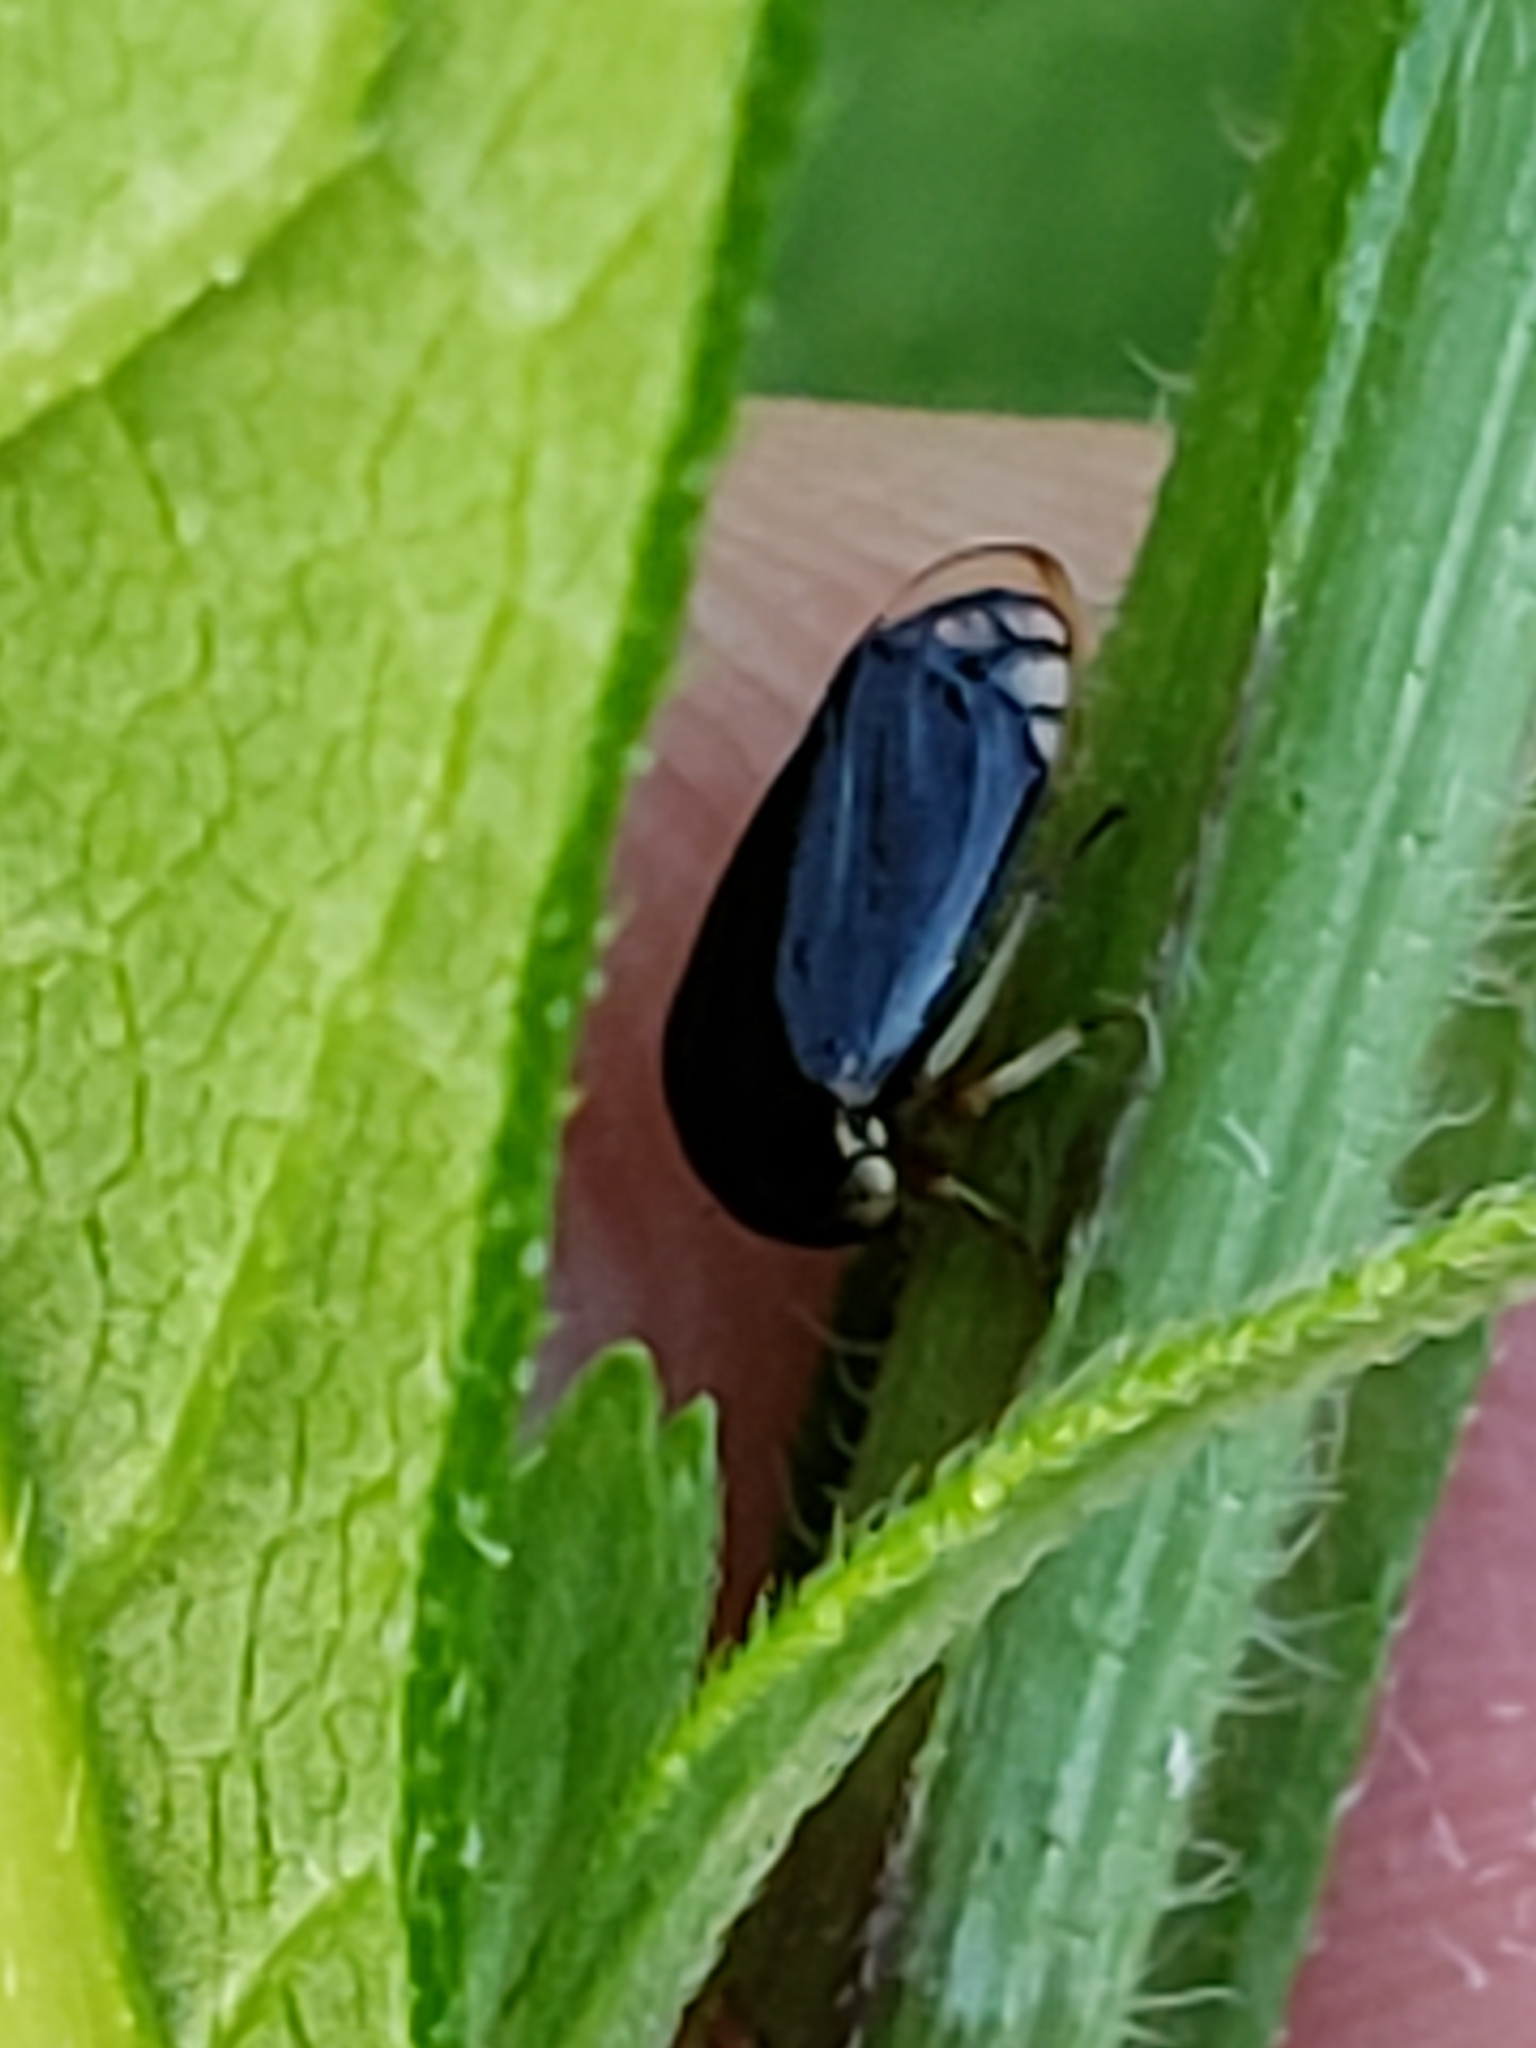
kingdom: Animalia
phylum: Arthropoda
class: Insecta
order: Hemiptera
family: Membracidae
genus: Acutalis
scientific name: Acutalis tartarea
